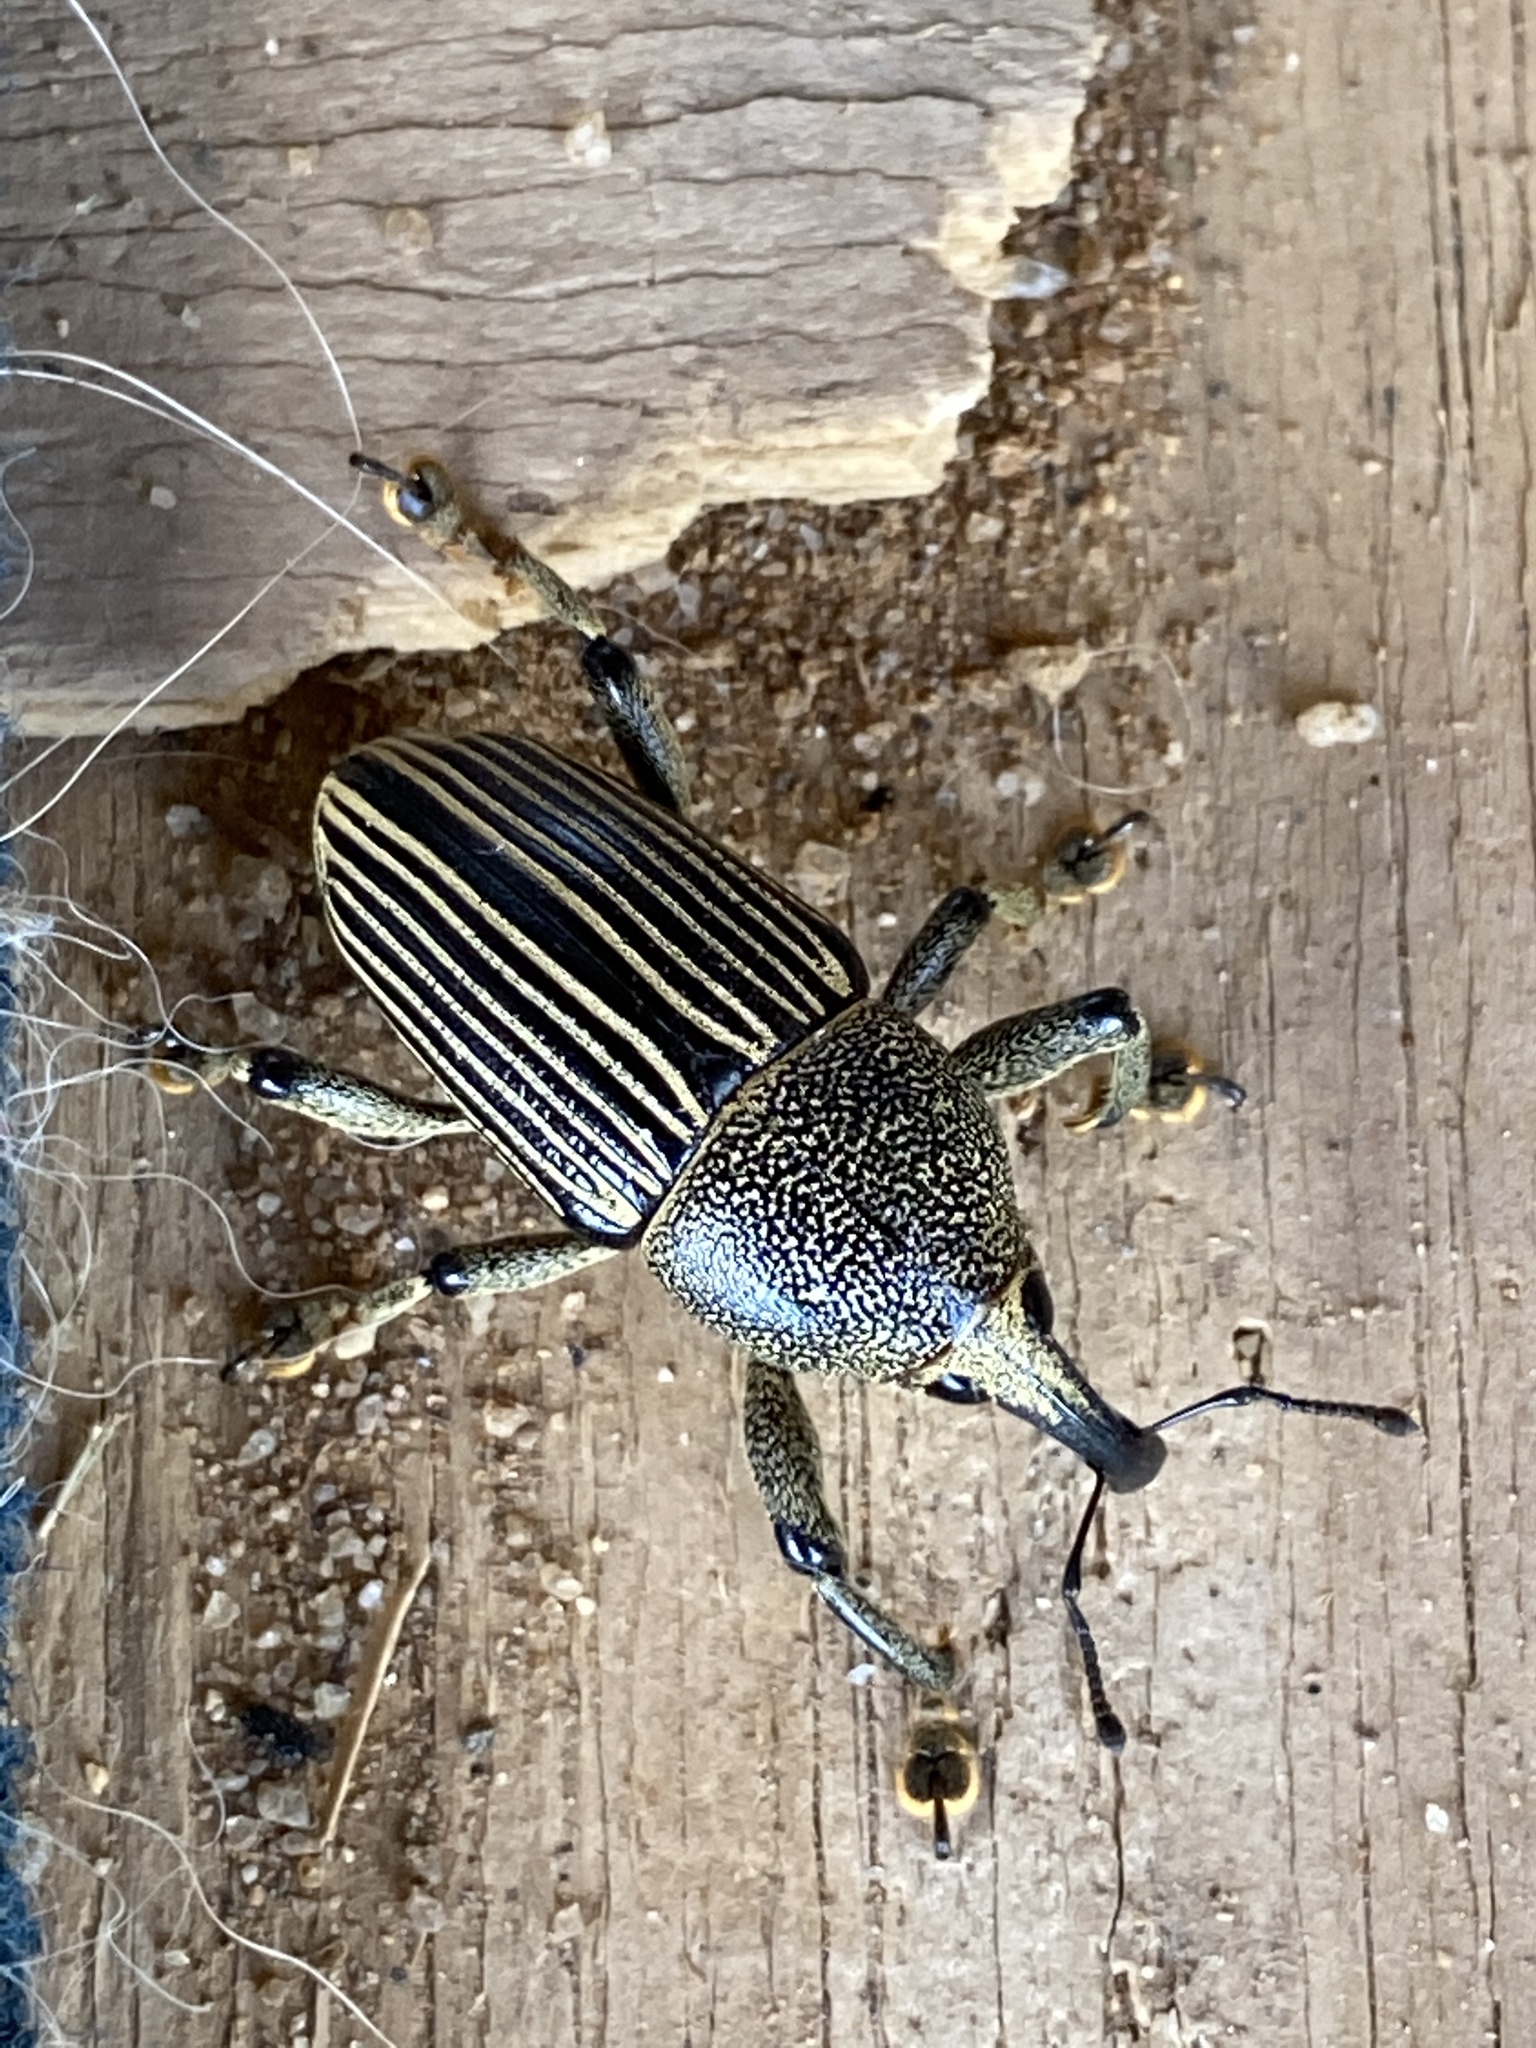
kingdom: Animalia
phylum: Arthropoda
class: Insecta
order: Coleoptera
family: Curculionidae
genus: Cholus
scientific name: Cholus parallelogrammus
